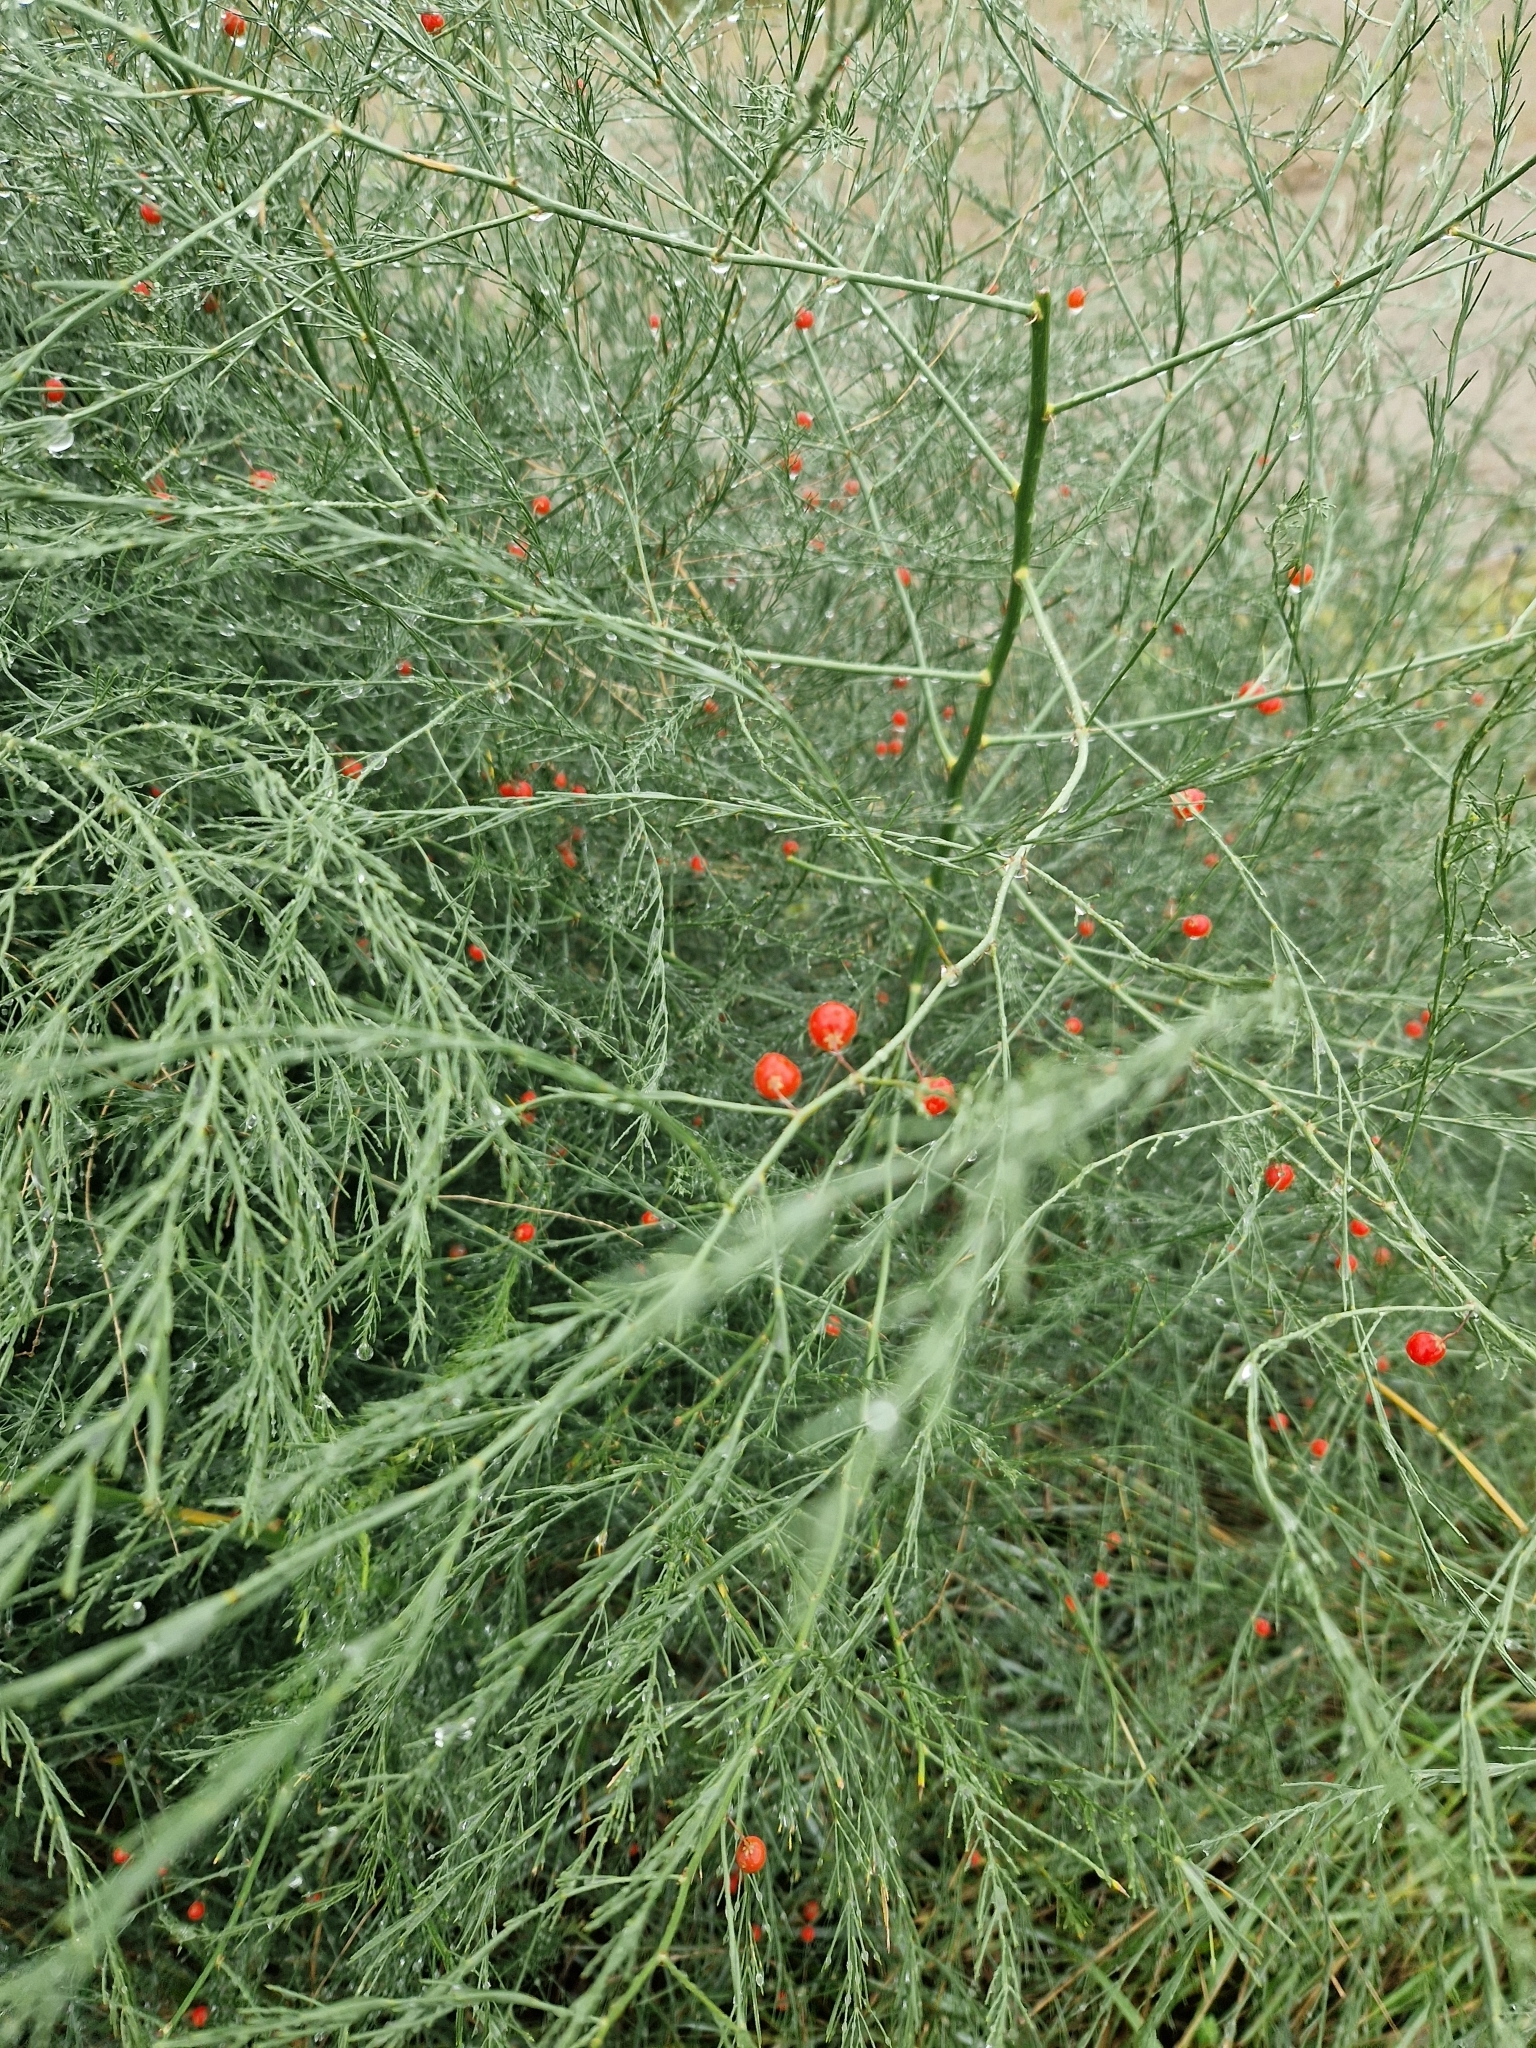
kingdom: Plantae
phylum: Tracheophyta
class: Liliopsida
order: Asparagales
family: Asparagaceae
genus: Asparagus
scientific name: Asparagus officinalis
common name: Garden asparagus
